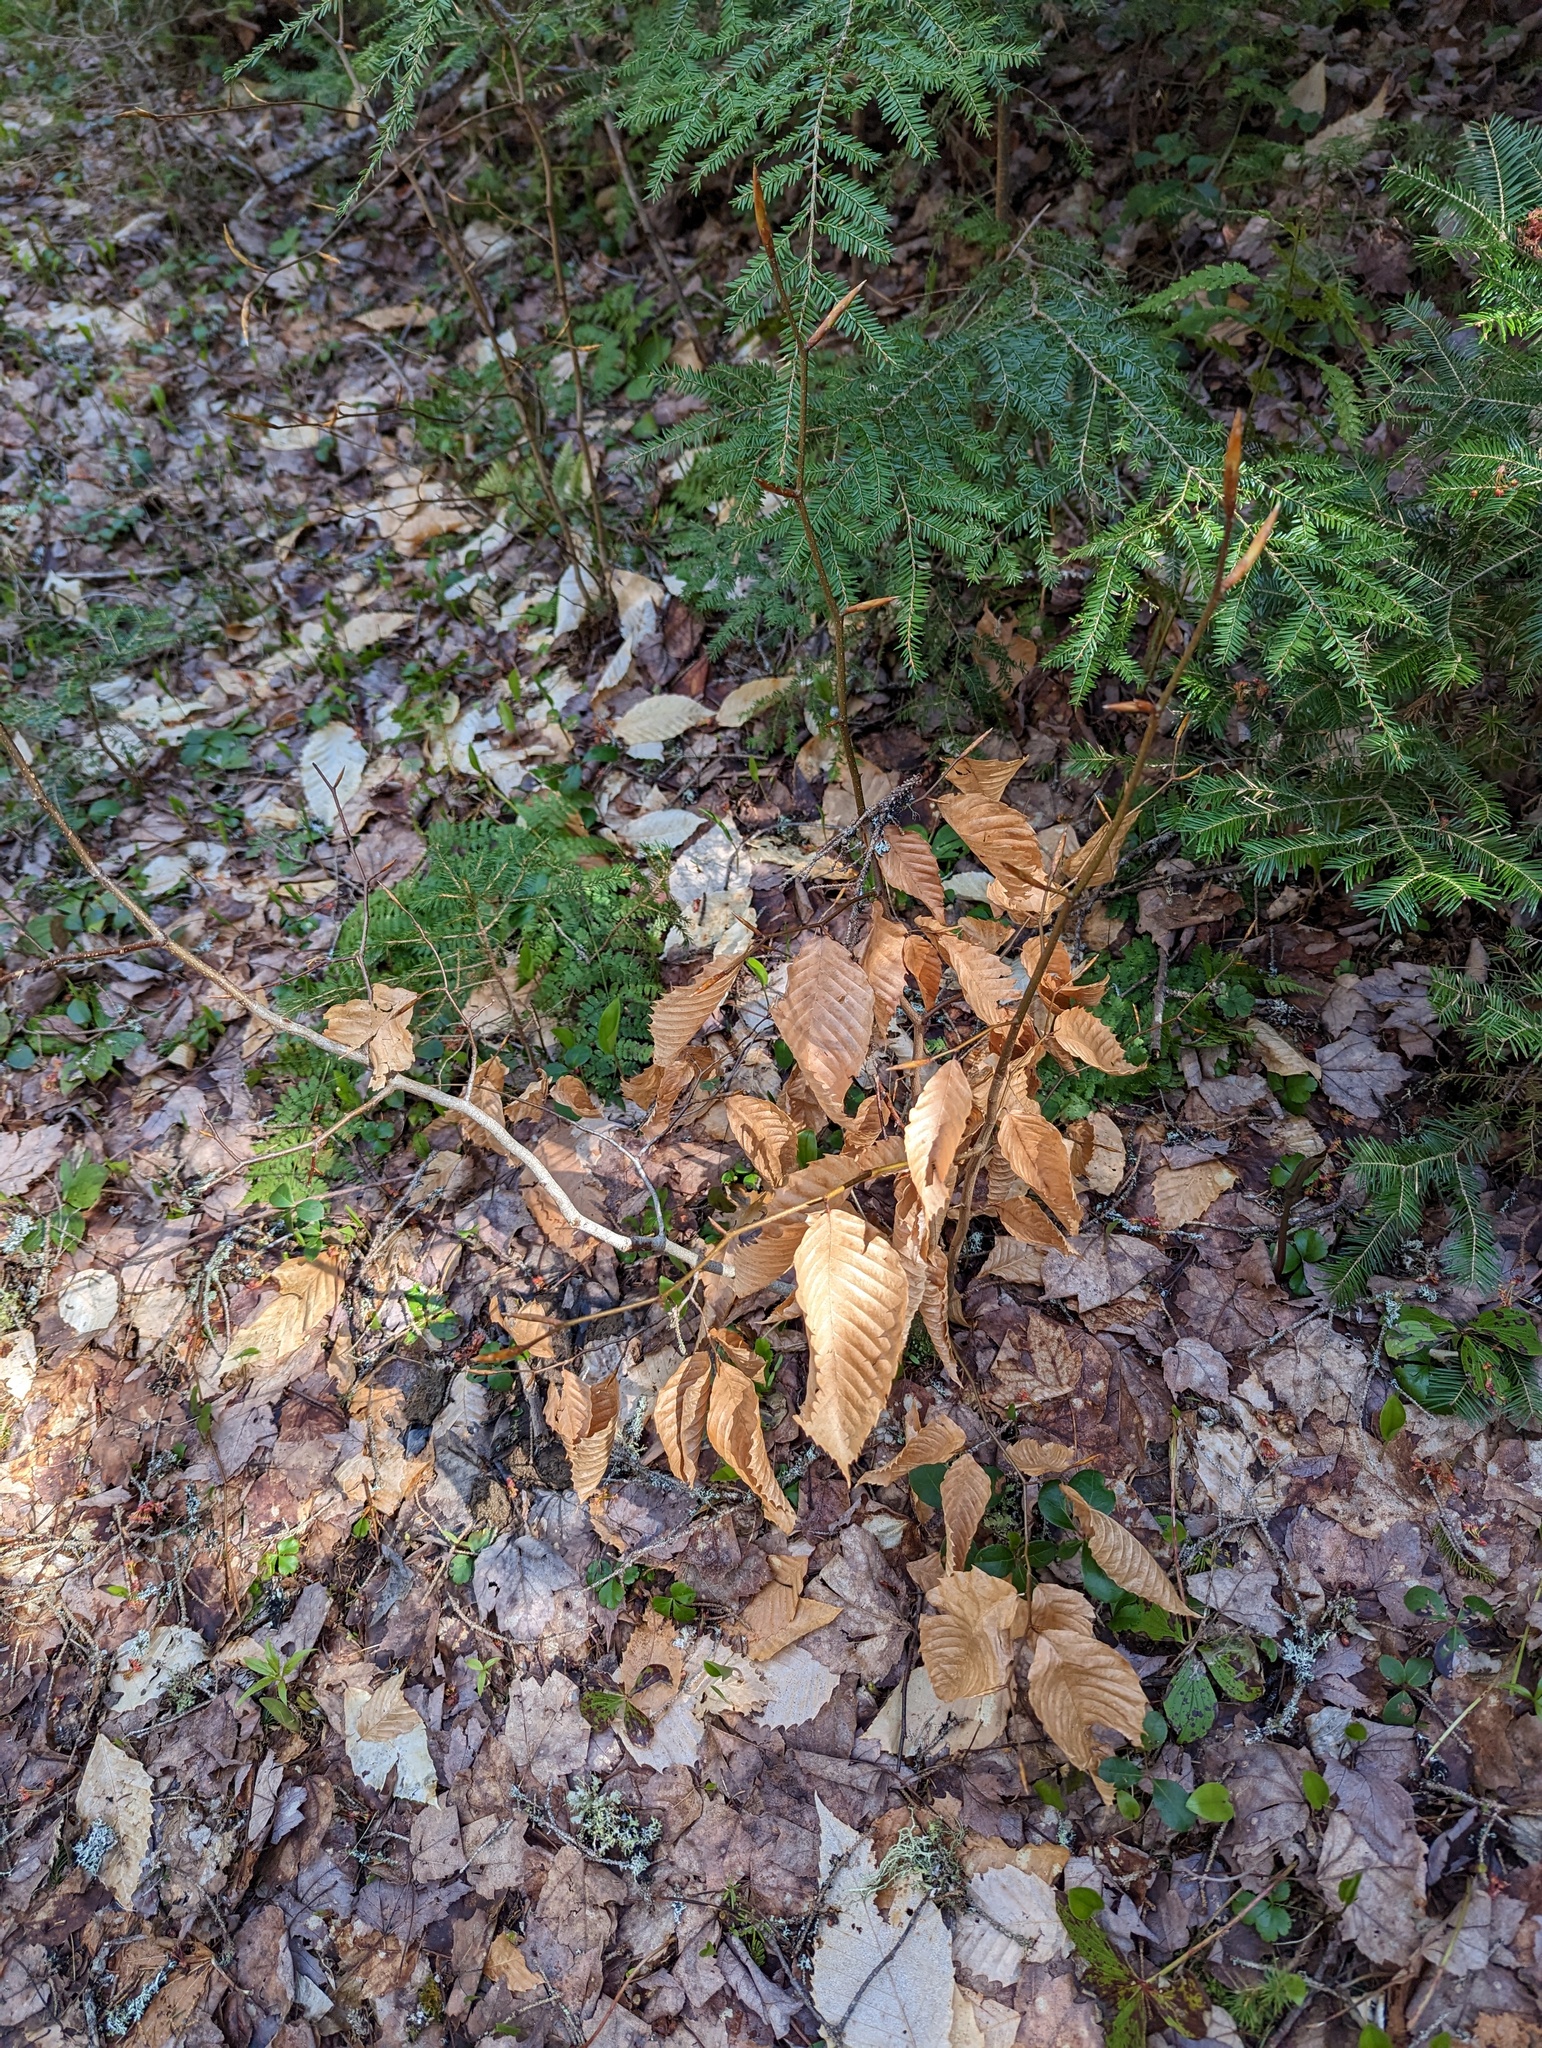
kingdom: Plantae
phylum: Tracheophyta
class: Magnoliopsida
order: Fagales
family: Fagaceae
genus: Fagus
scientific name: Fagus grandifolia
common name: American beech
